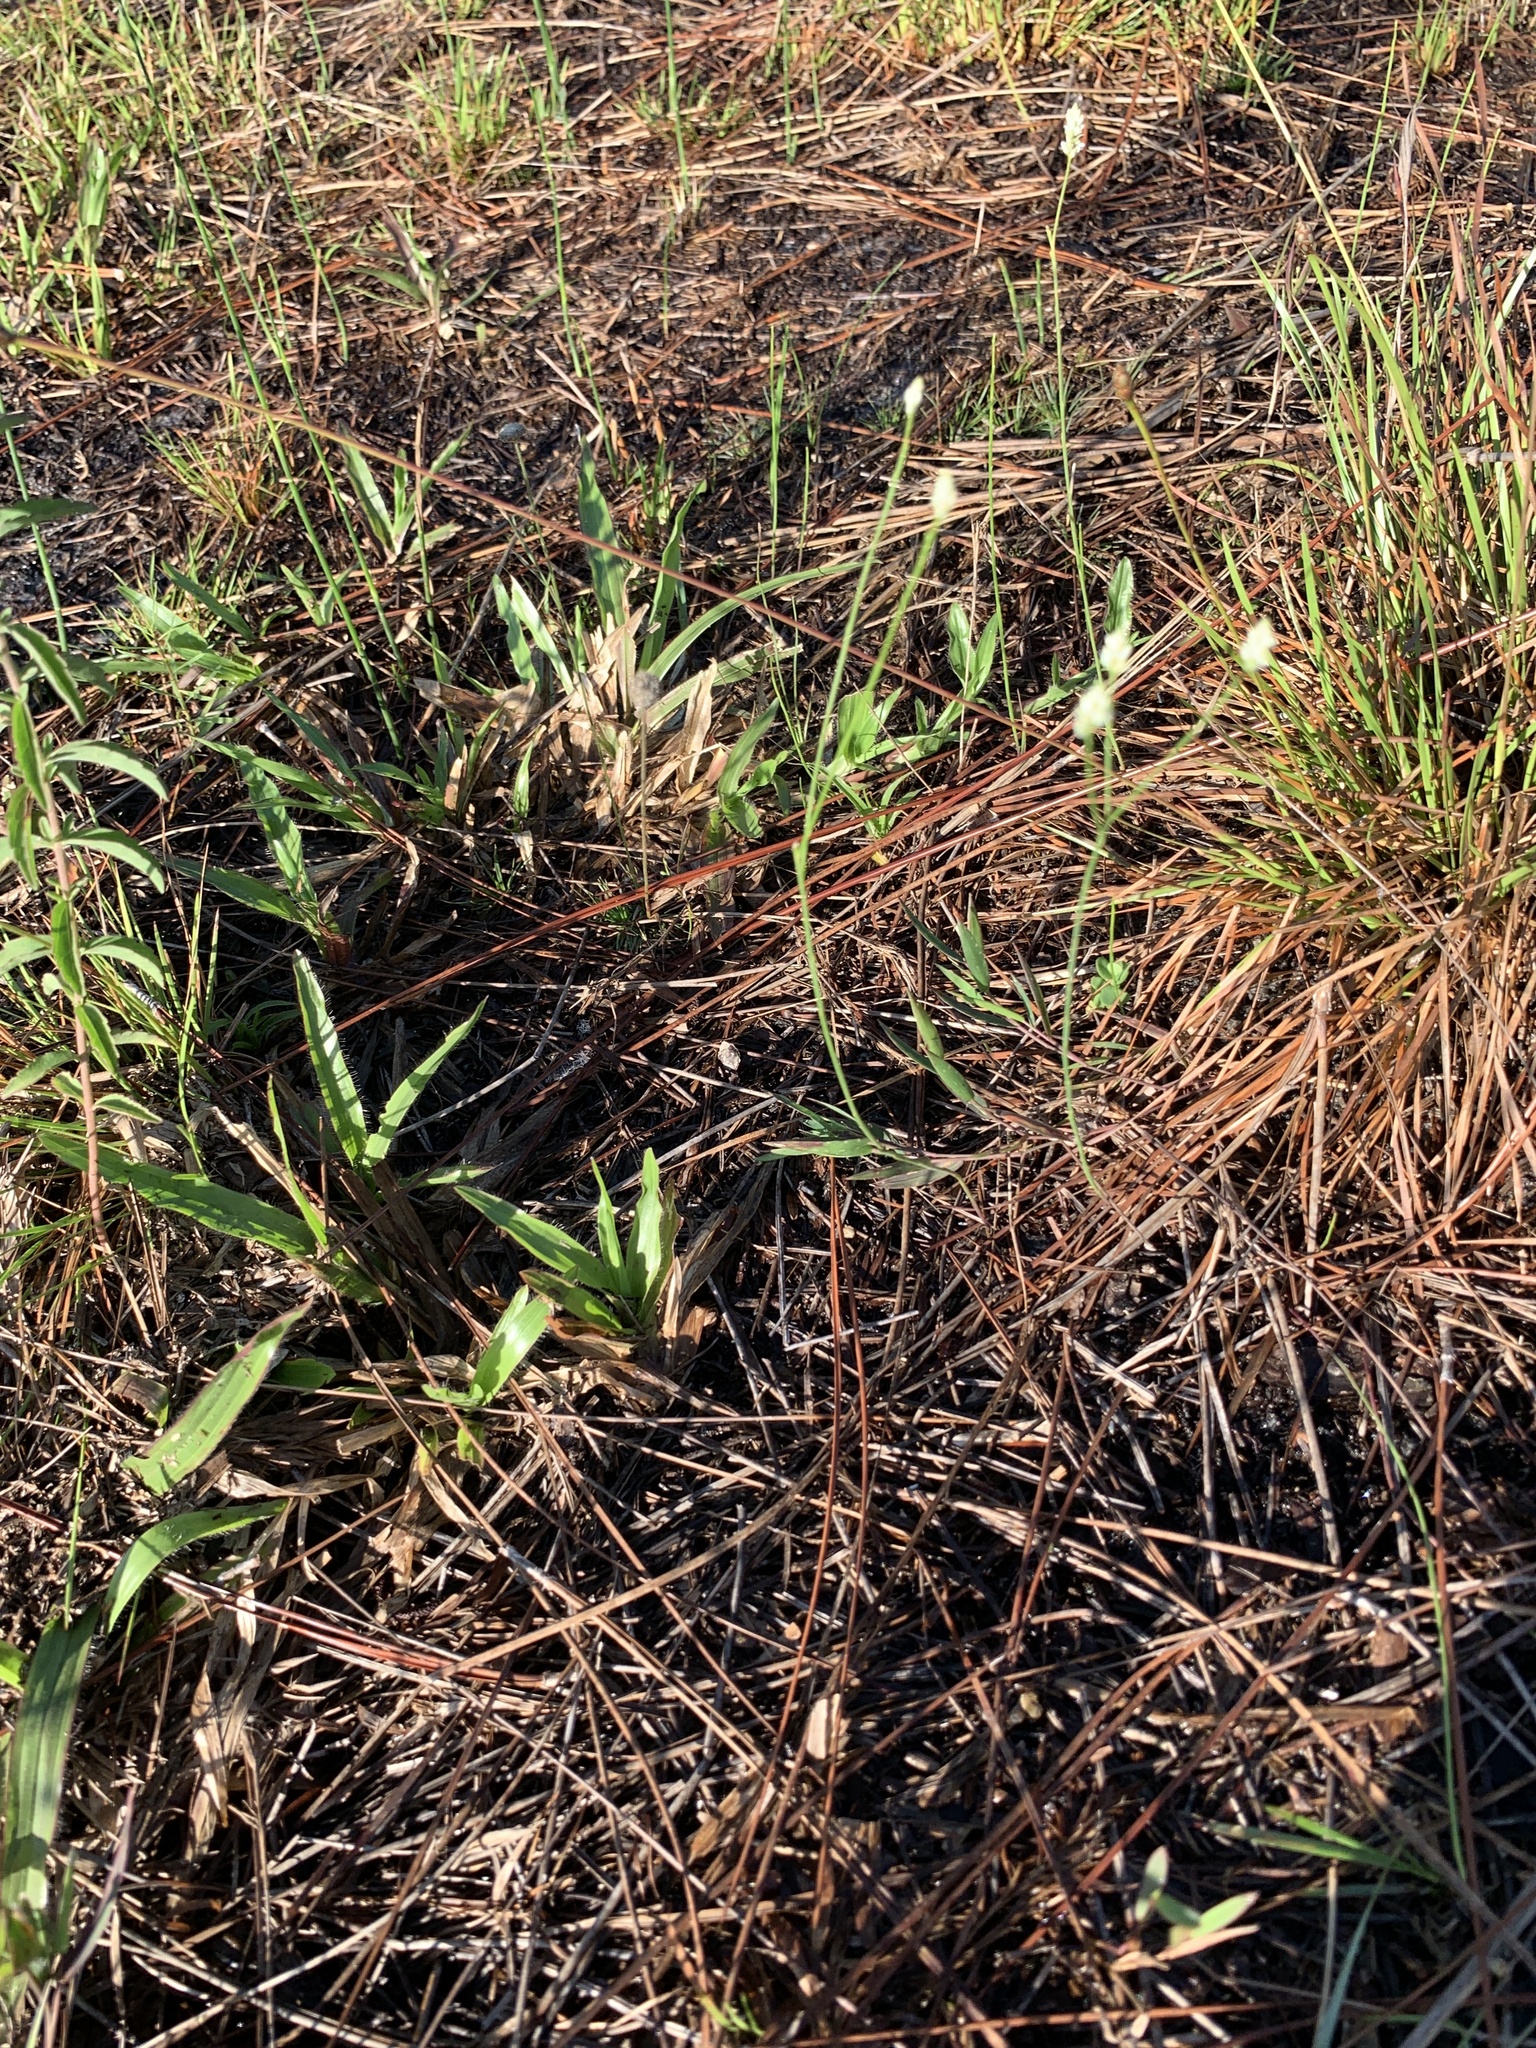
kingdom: Plantae
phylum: Tracheophyta
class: Magnoliopsida
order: Fabales
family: Polygalaceae
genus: Polygala
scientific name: Polygala setacea
